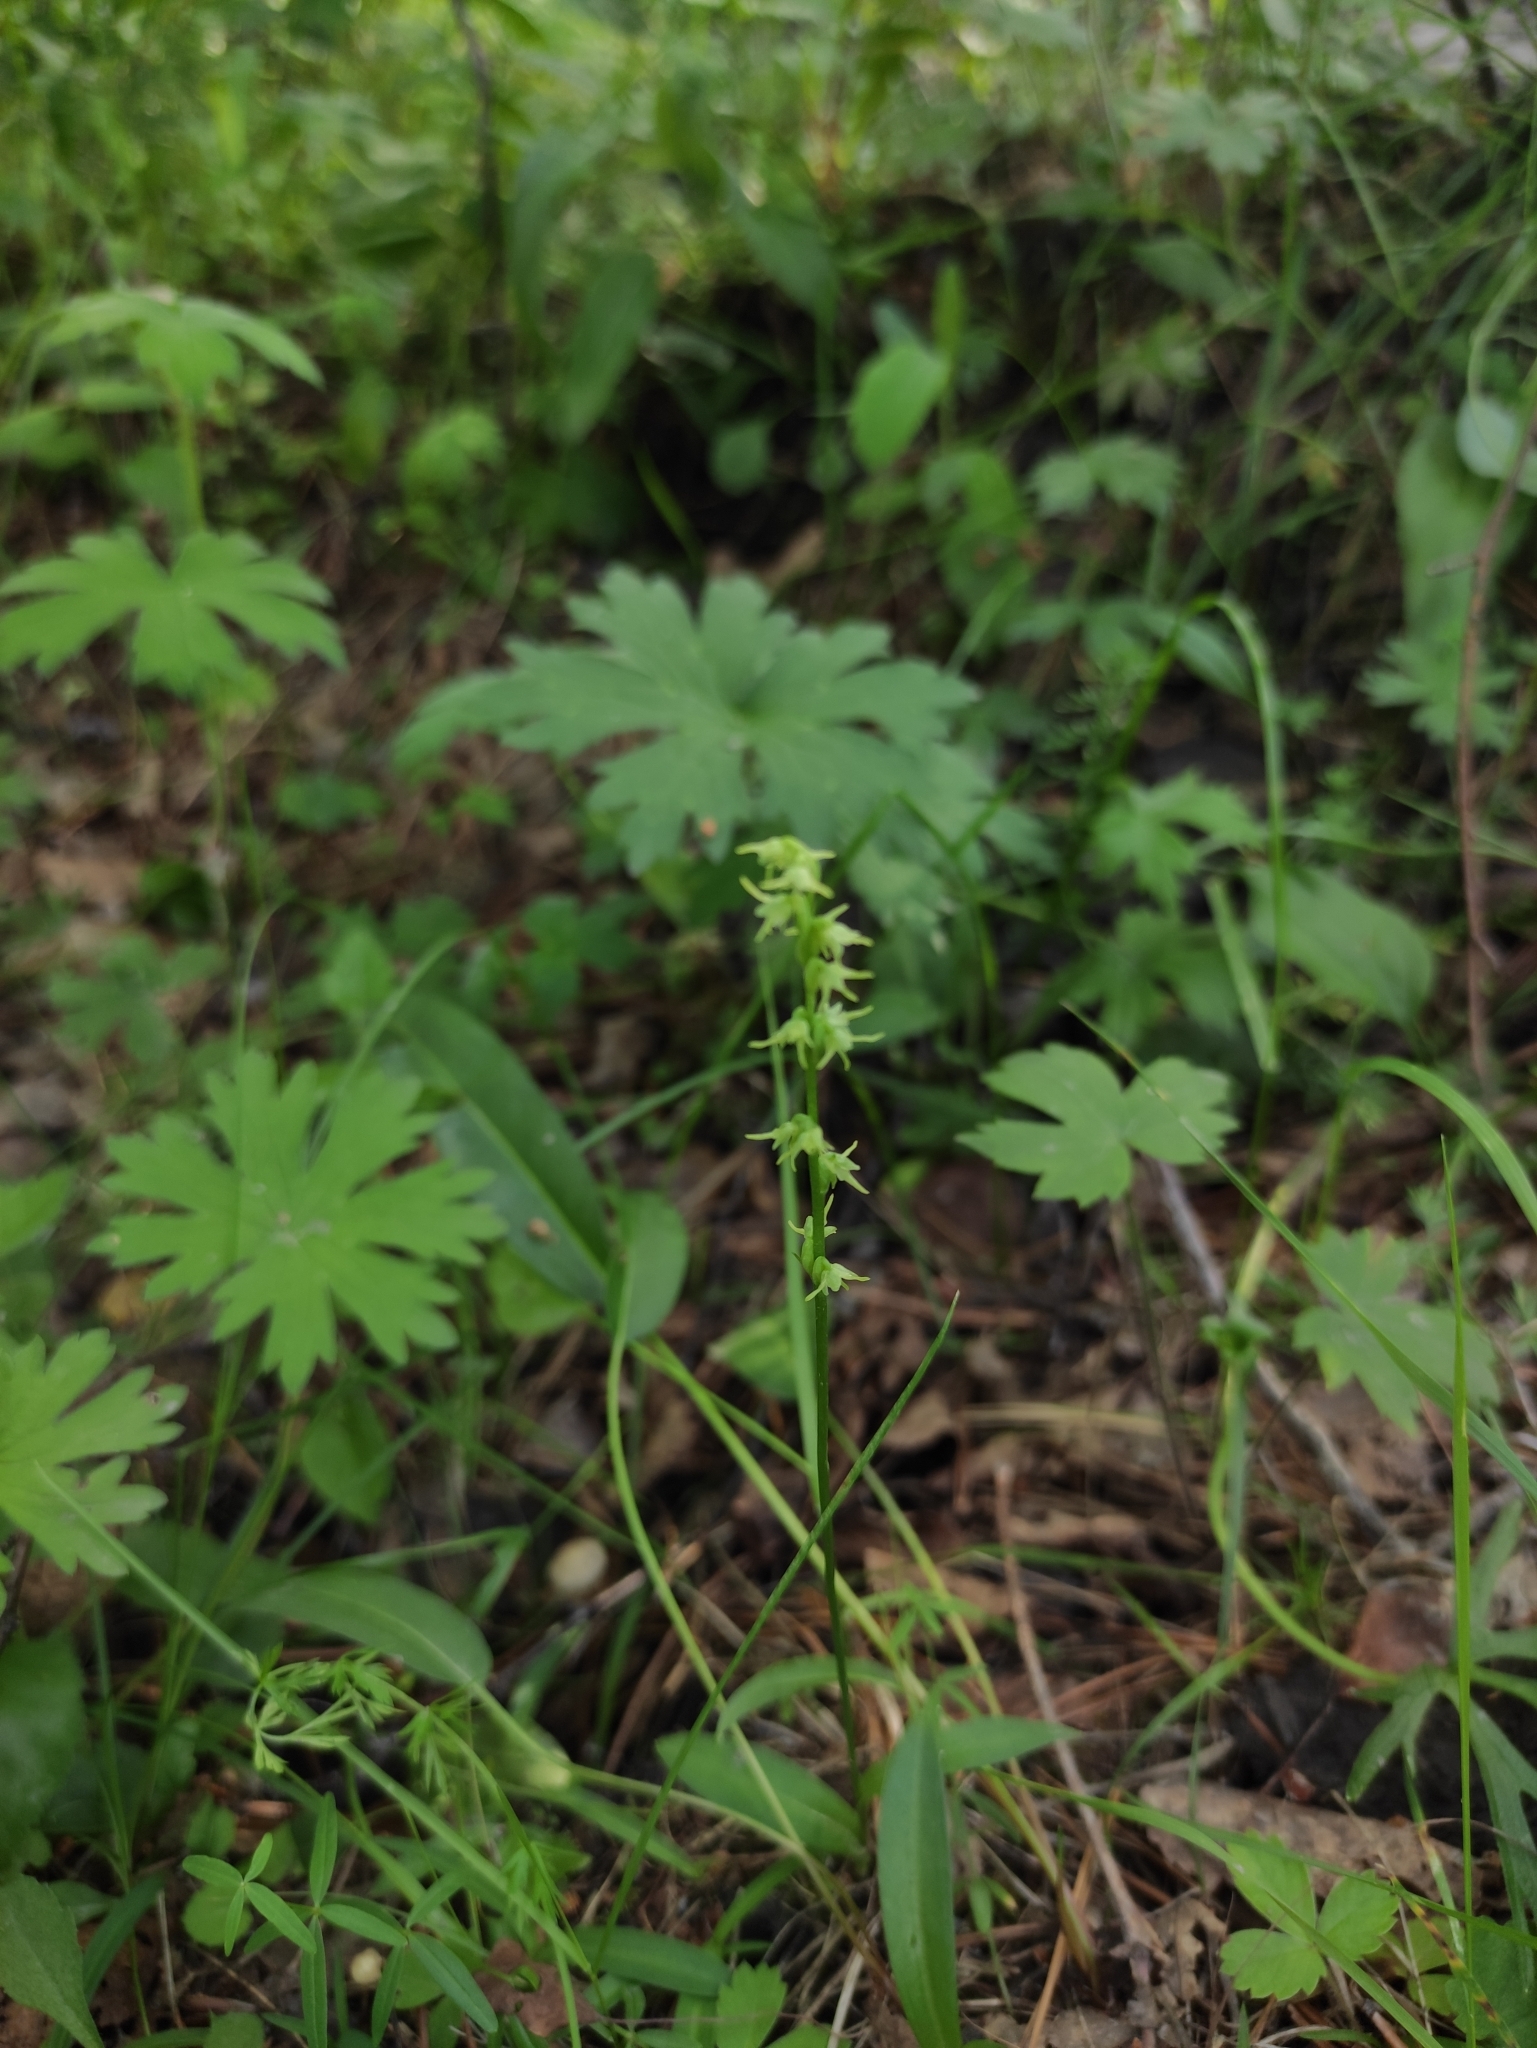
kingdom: Plantae
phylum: Tracheophyta
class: Liliopsida
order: Asparagales
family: Orchidaceae
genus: Herminium
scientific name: Herminium monorchis
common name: Musk orchid
